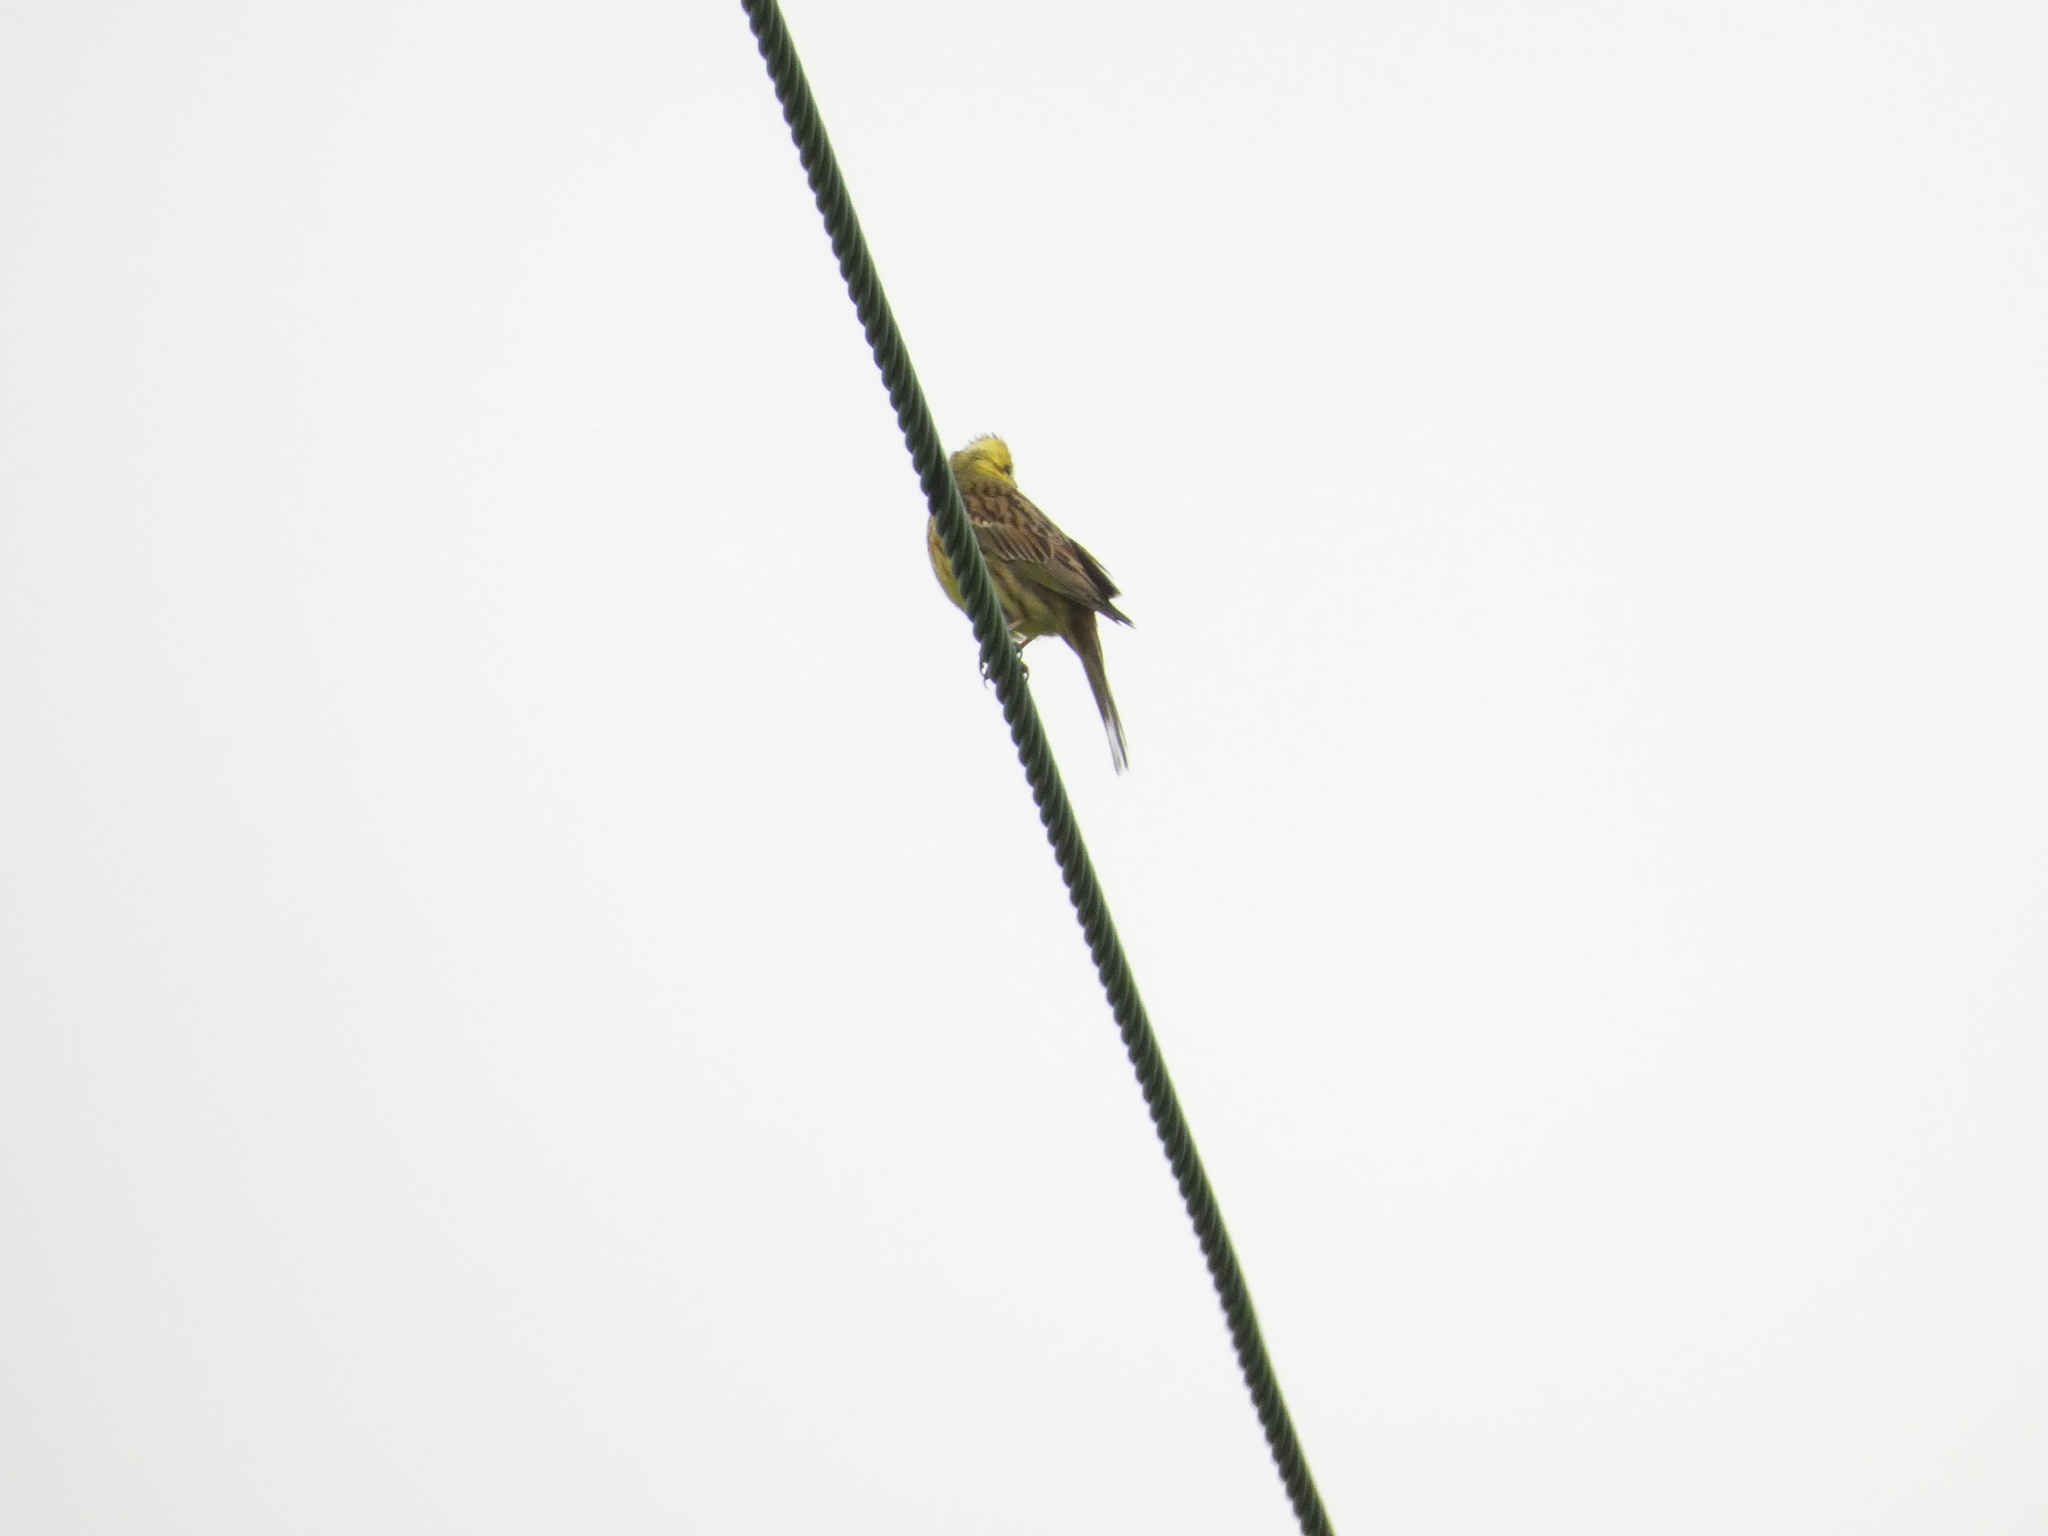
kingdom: Animalia
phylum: Chordata
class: Aves
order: Passeriformes
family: Emberizidae
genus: Emberiza
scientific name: Emberiza citrinella
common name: Yellowhammer
